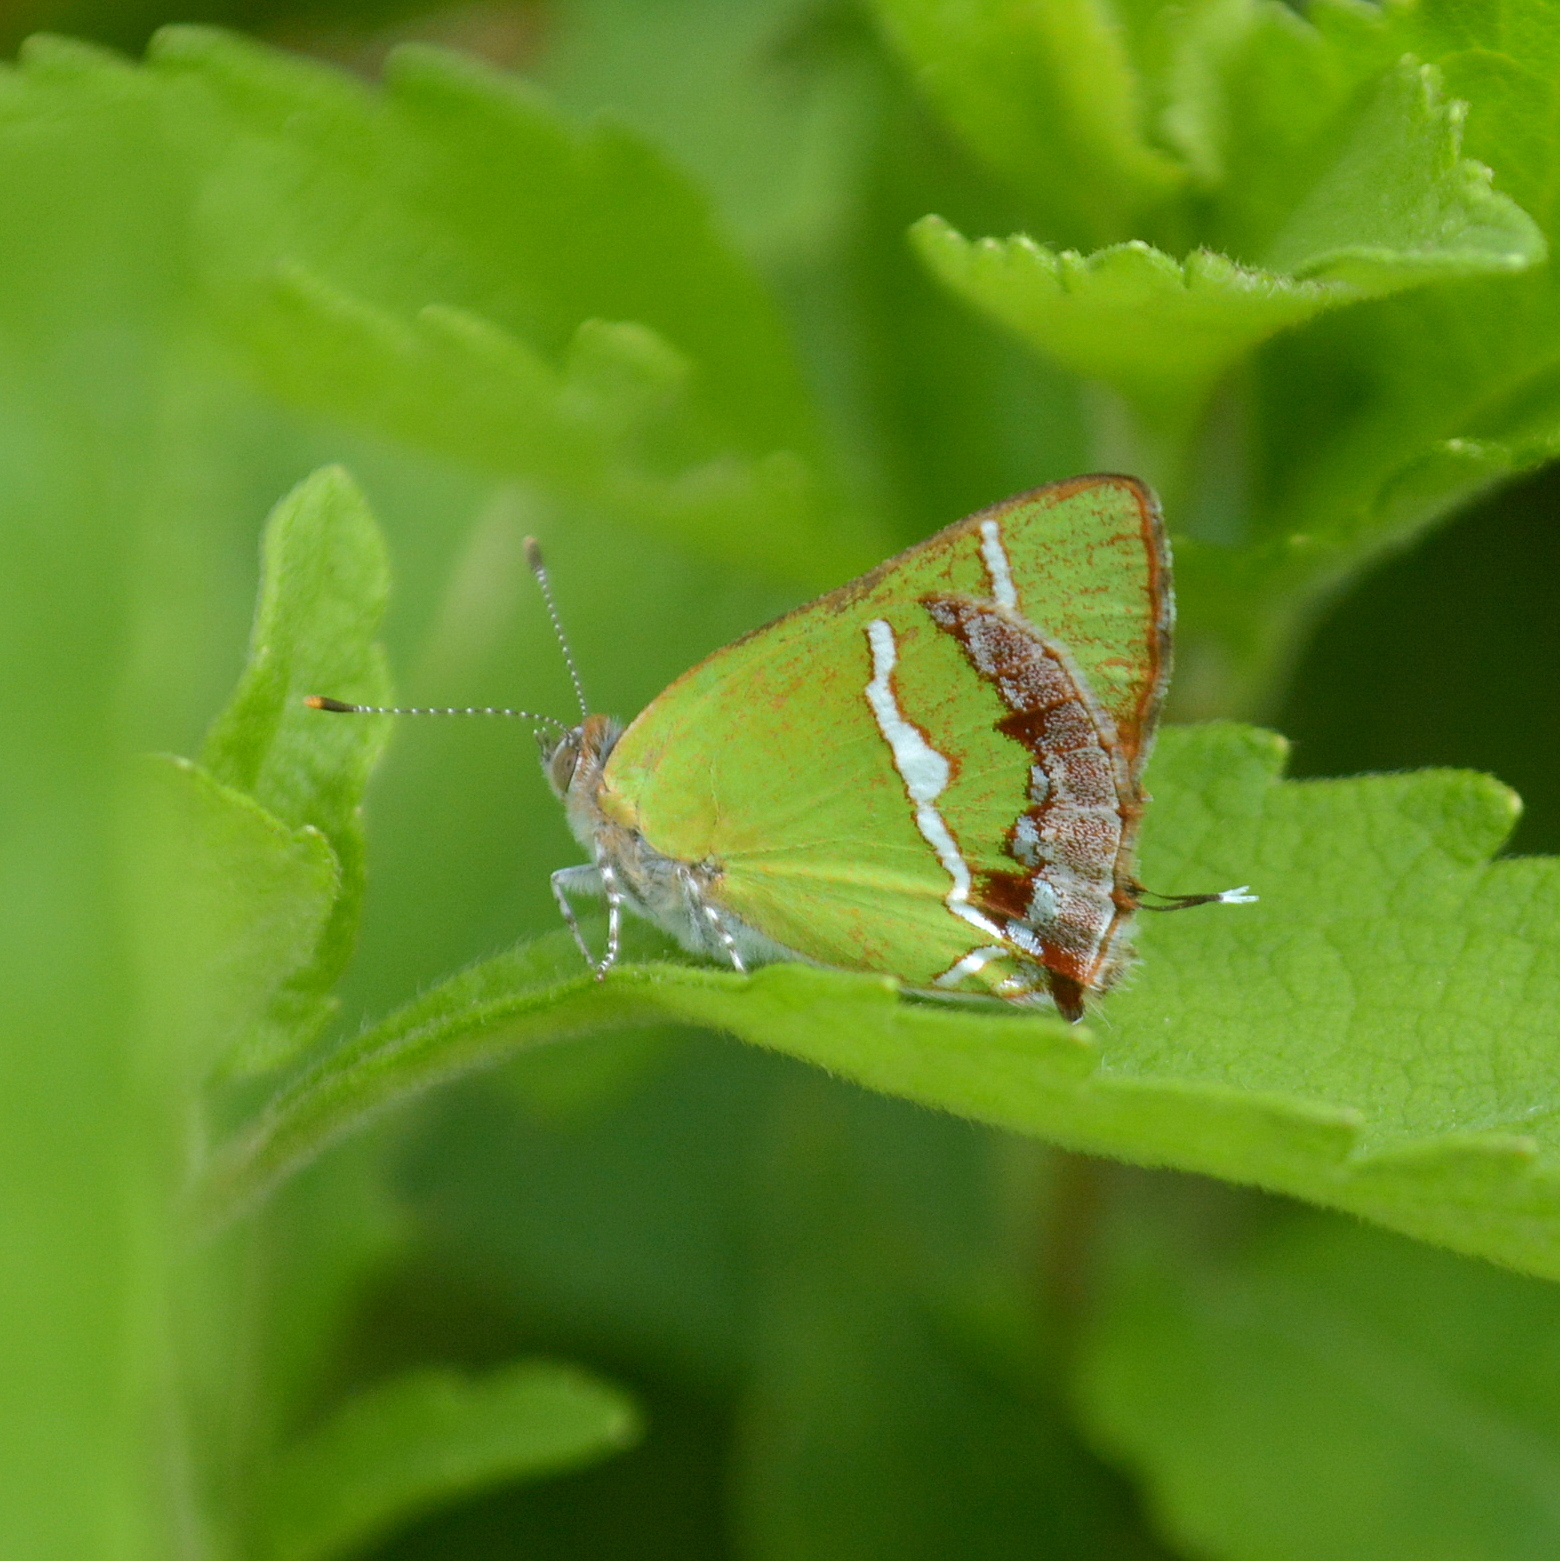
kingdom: Animalia
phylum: Arthropoda
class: Insecta
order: Lepidoptera
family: Lycaenidae
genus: Chlorostrymon
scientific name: Chlorostrymon simaethis
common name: Silver-banded hairstreak
